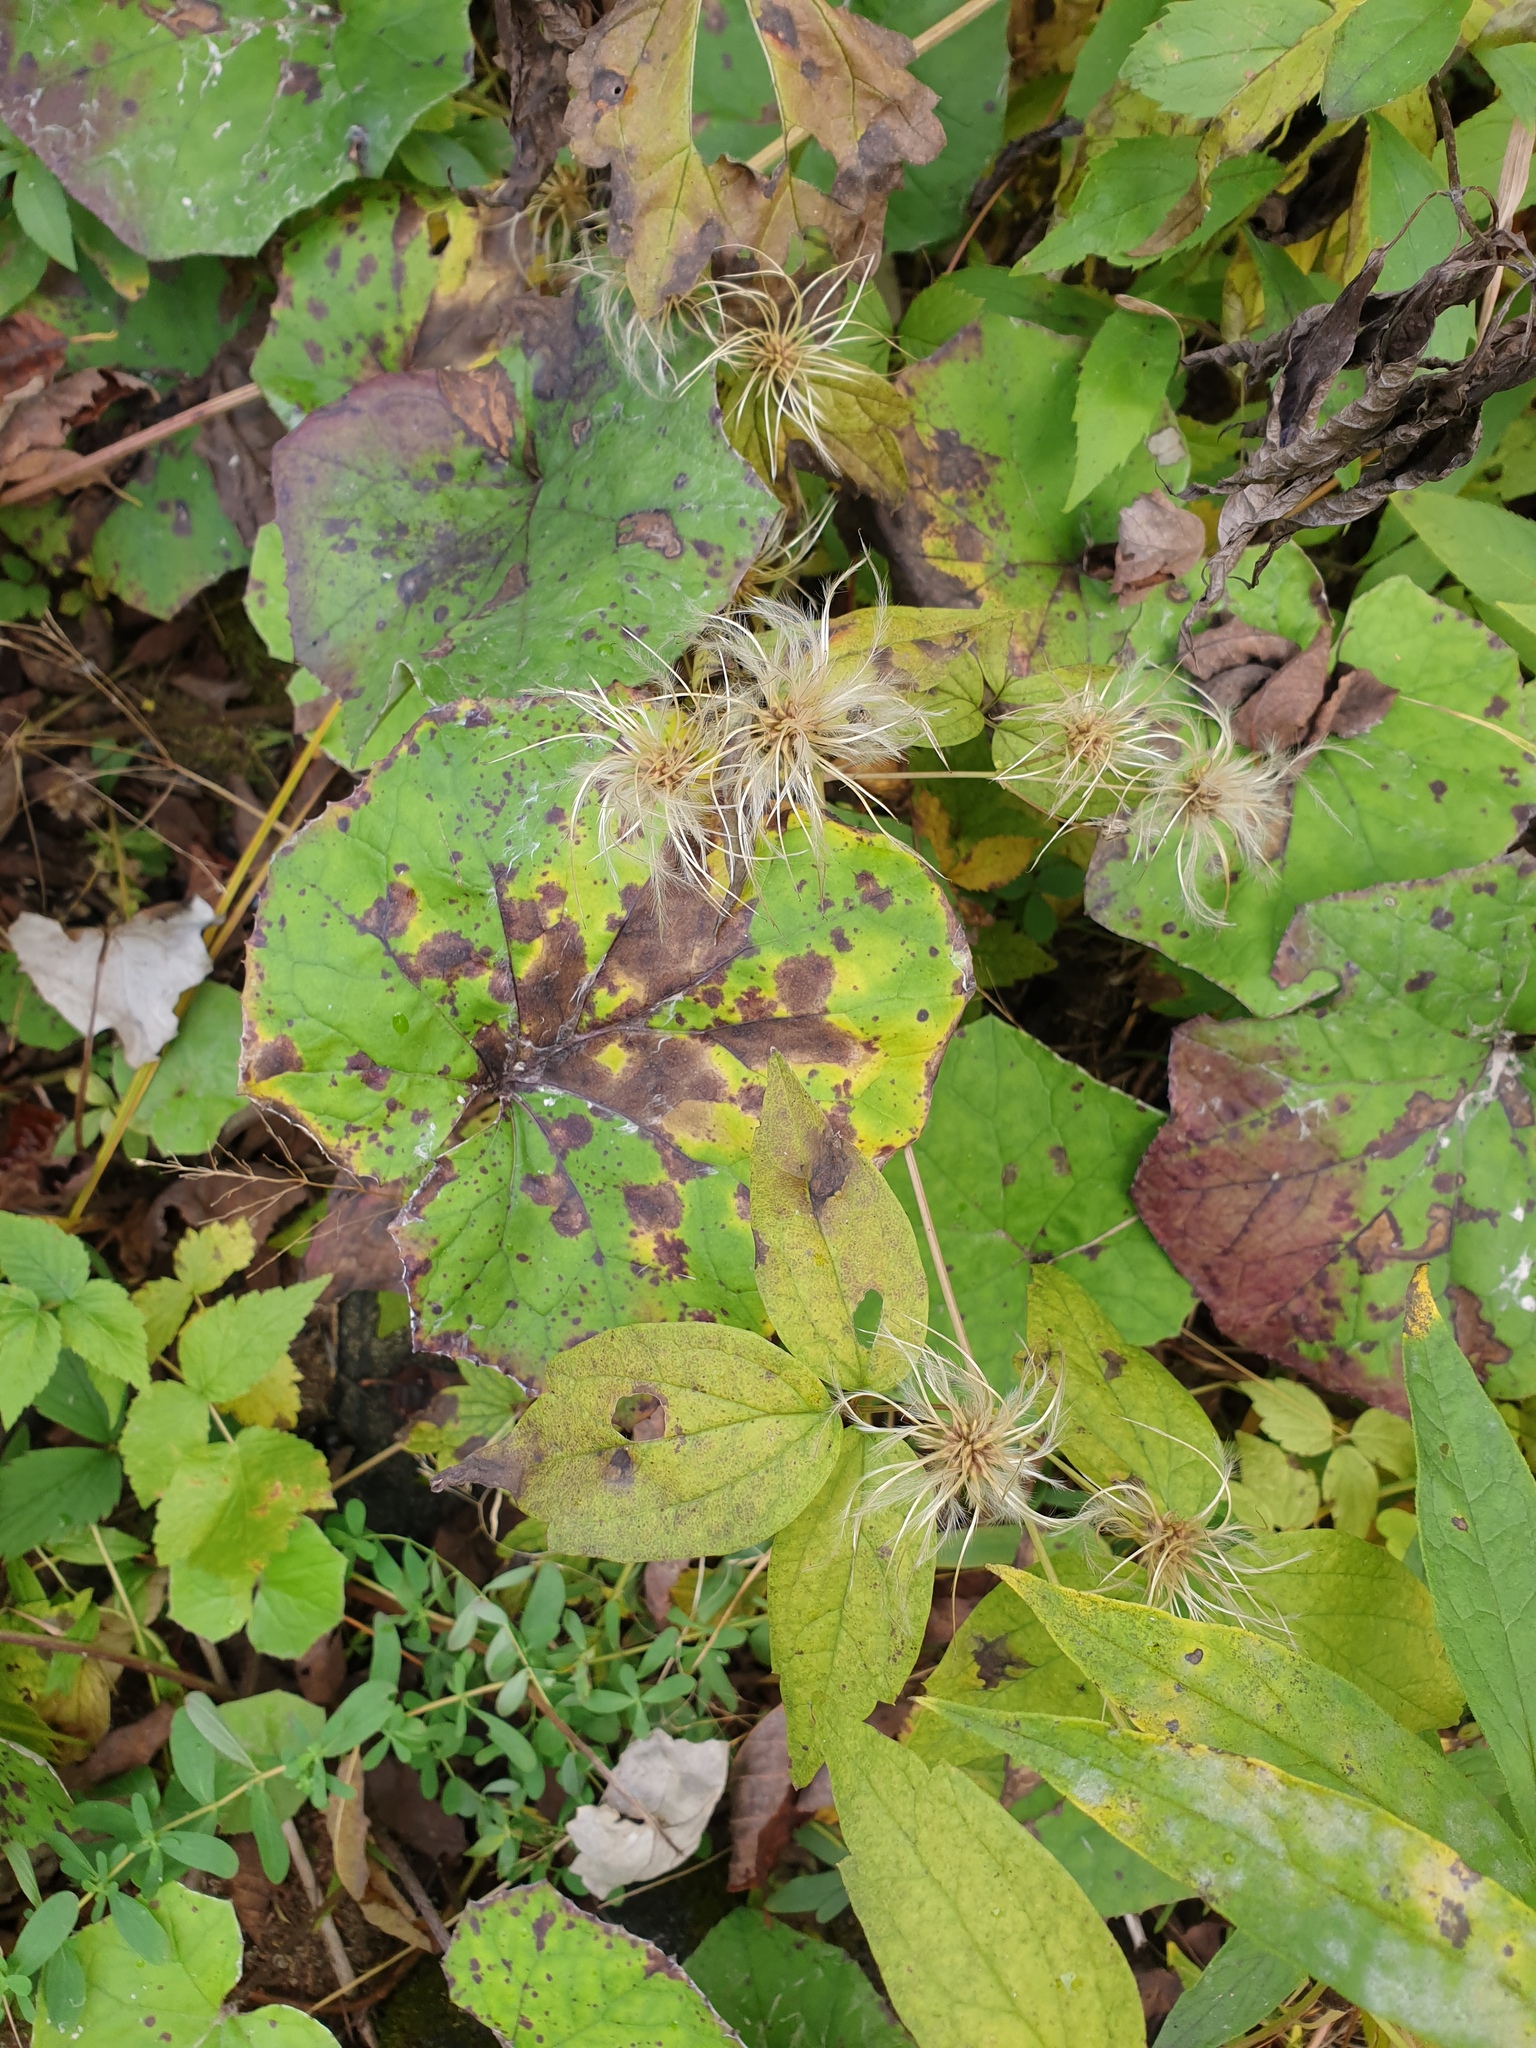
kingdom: Plantae
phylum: Tracheophyta
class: Magnoliopsida
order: Ranunculales
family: Ranunculaceae
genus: Clematis
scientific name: Clematis virginiana
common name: Virgin's-bower
